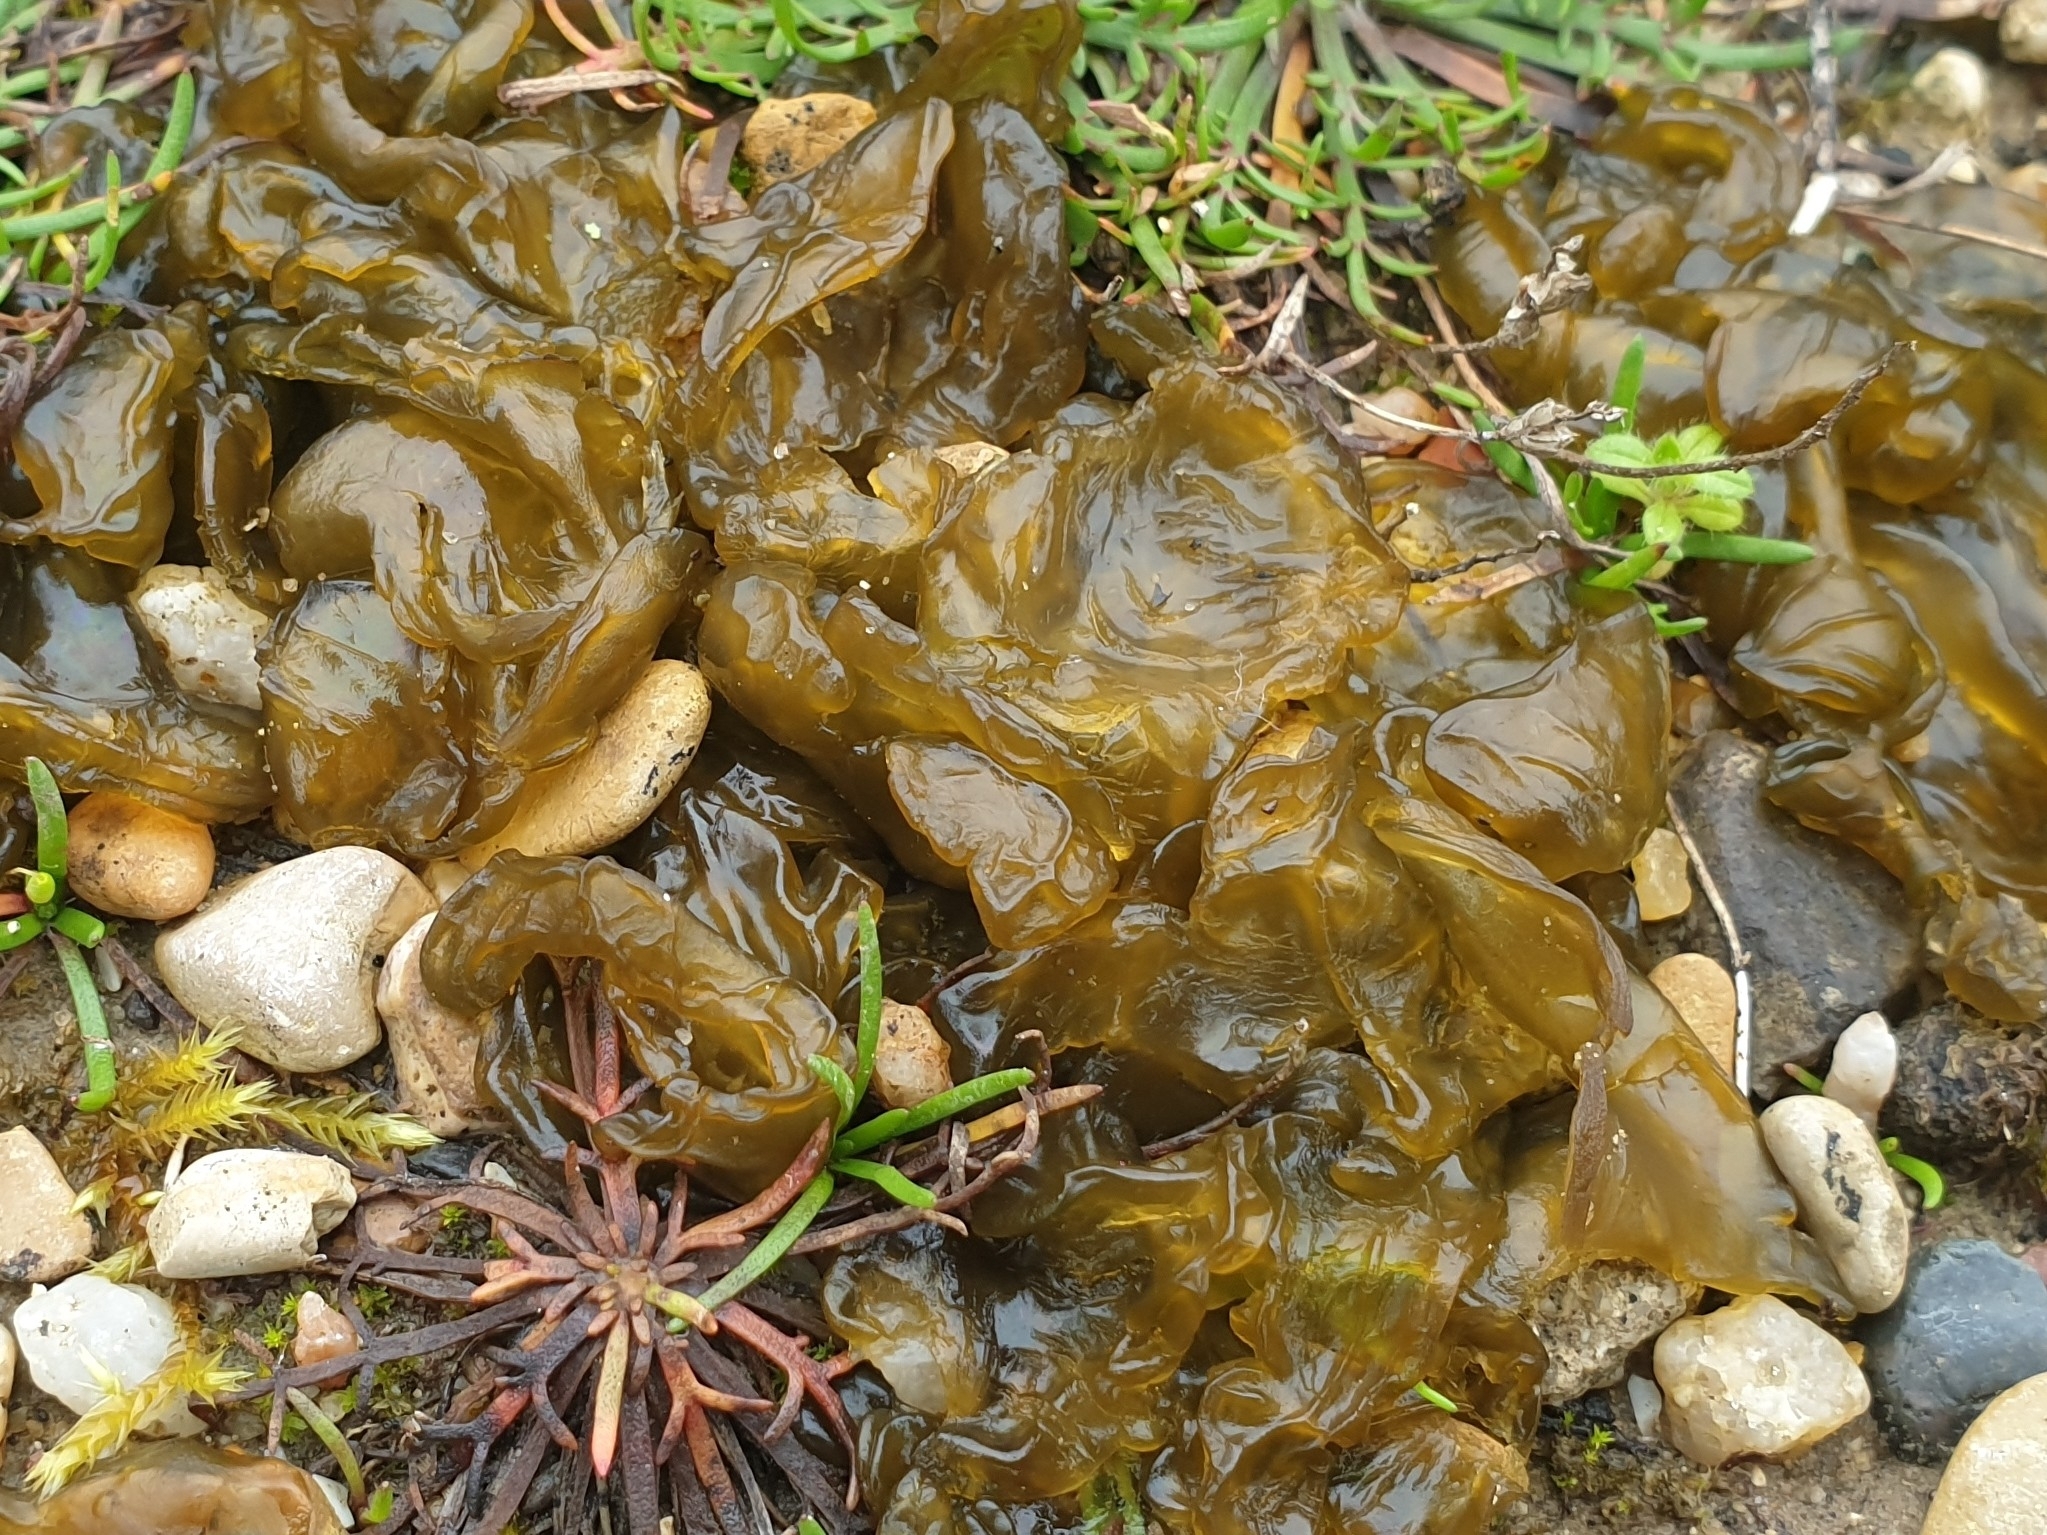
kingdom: Bacteria
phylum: Cyanobacteria
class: Cyanobacteriia
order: Cyanobacteriales
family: Nostocaceae
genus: Nostoc
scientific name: Nostoc commune
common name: Star jelly
